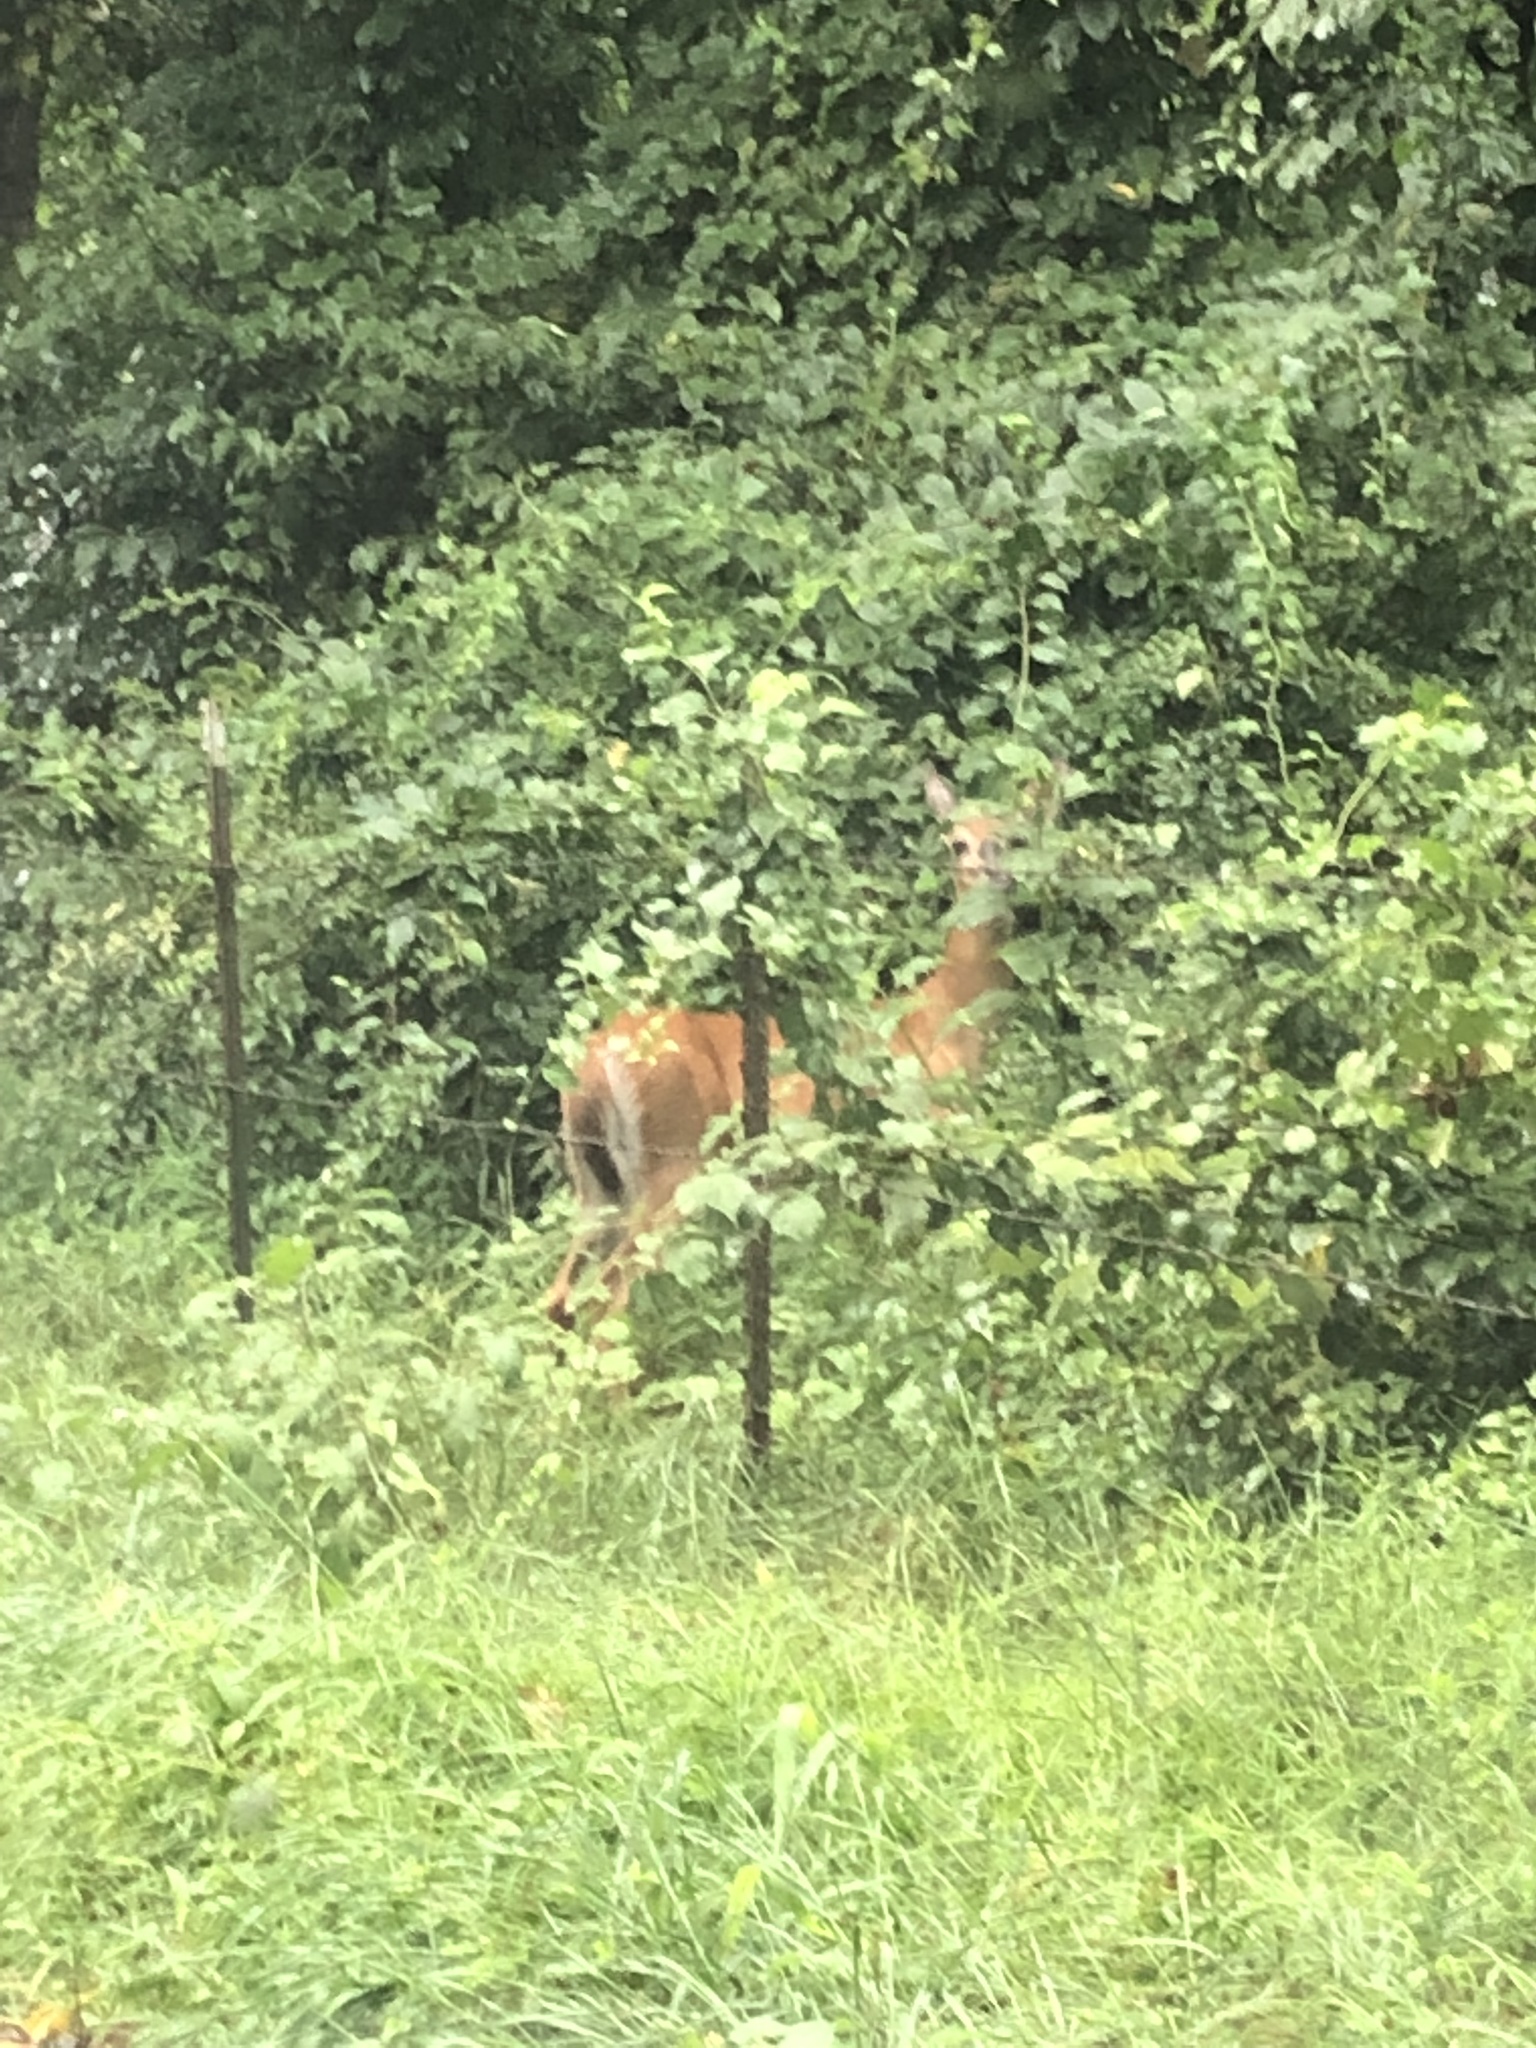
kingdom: Animalia
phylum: Chordata
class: Mammalia
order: Artiodactyla
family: Cervidae
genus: Odocoileus
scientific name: Odocoileus virginianus
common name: White-tailed deer
